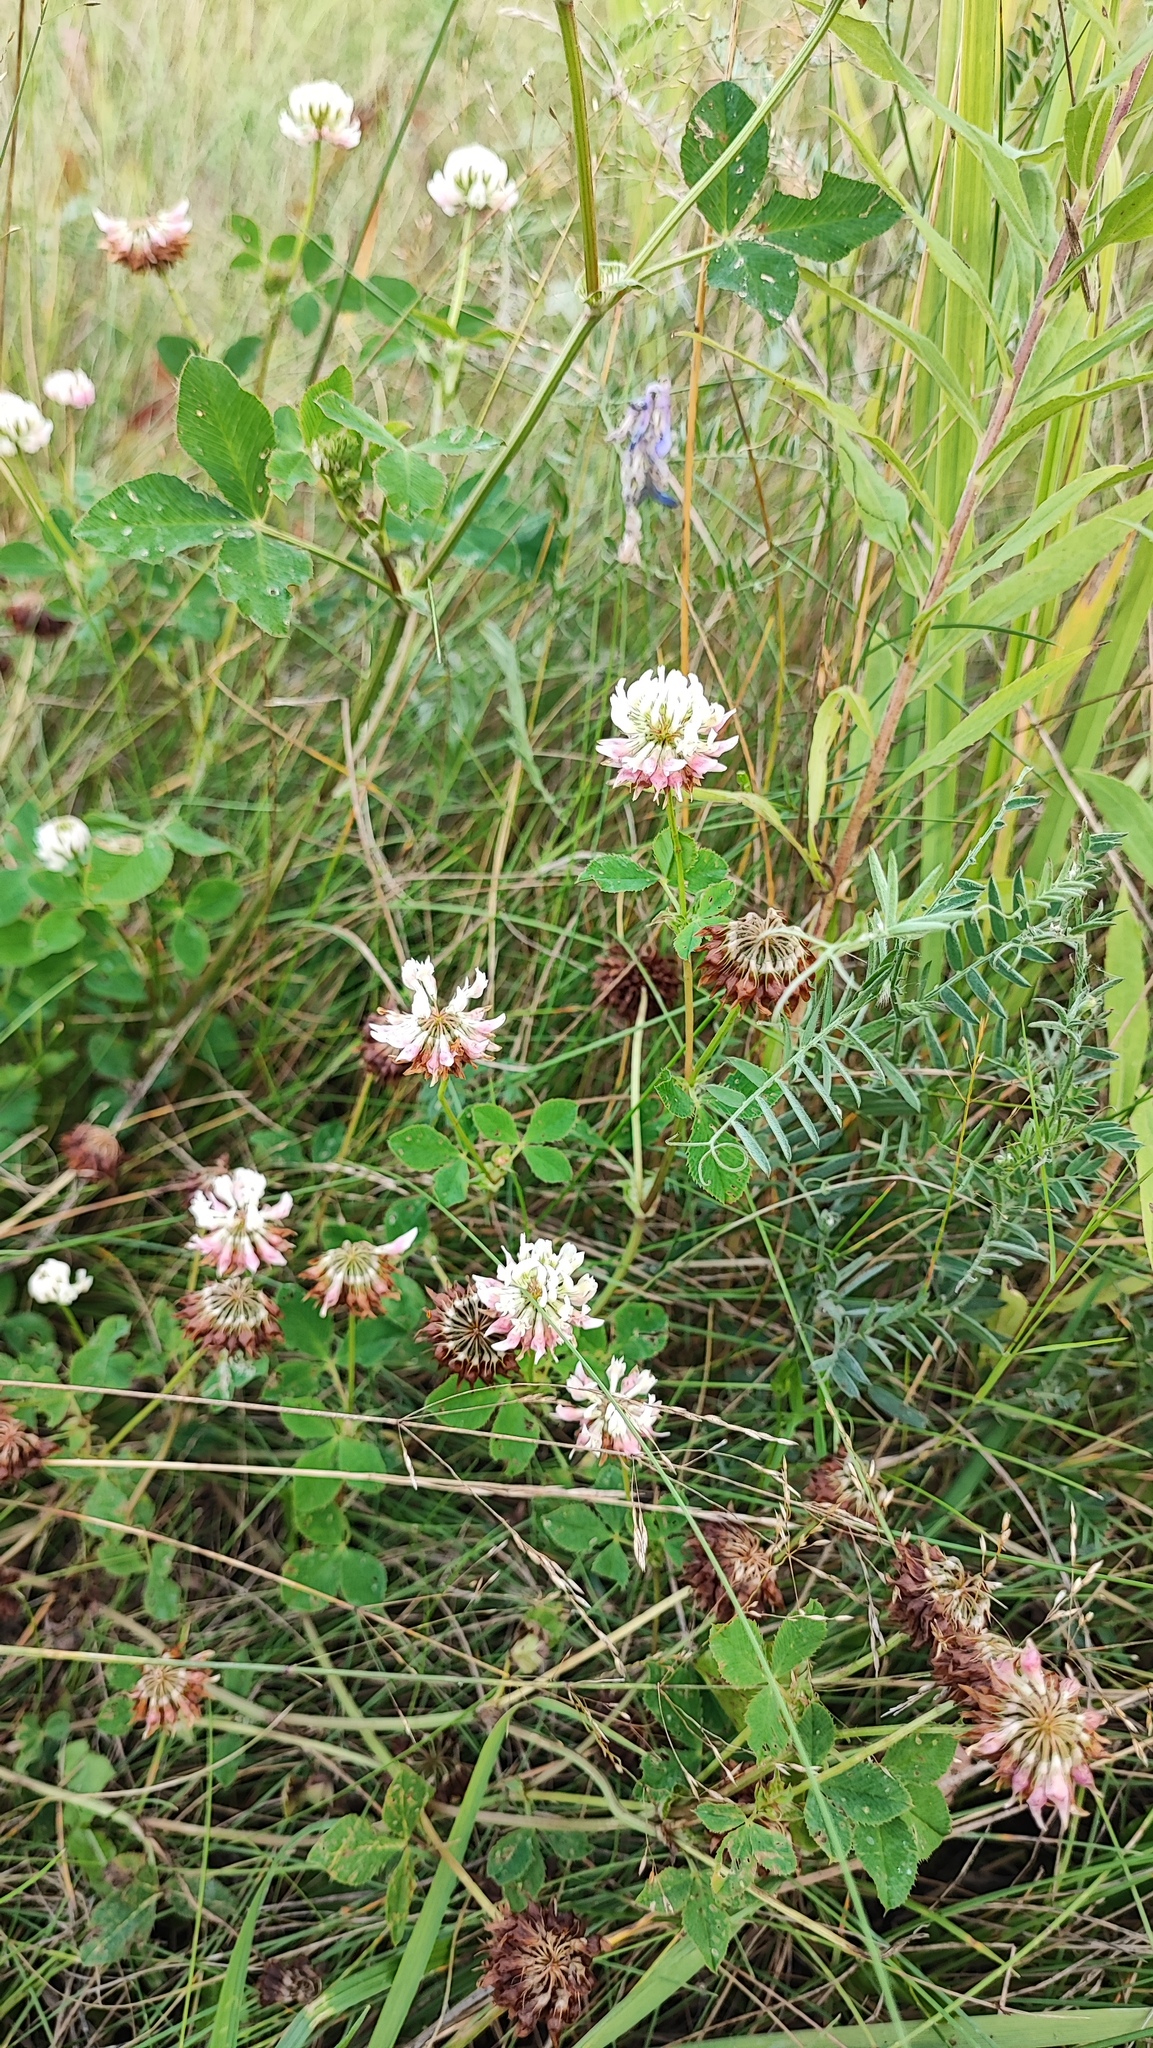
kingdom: Plantae
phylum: Tracheophyta
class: Magnoliopsida
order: Fabales
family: Fabaceae
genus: Trifolium
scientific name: Trifolium hybridum
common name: Alsike clover
